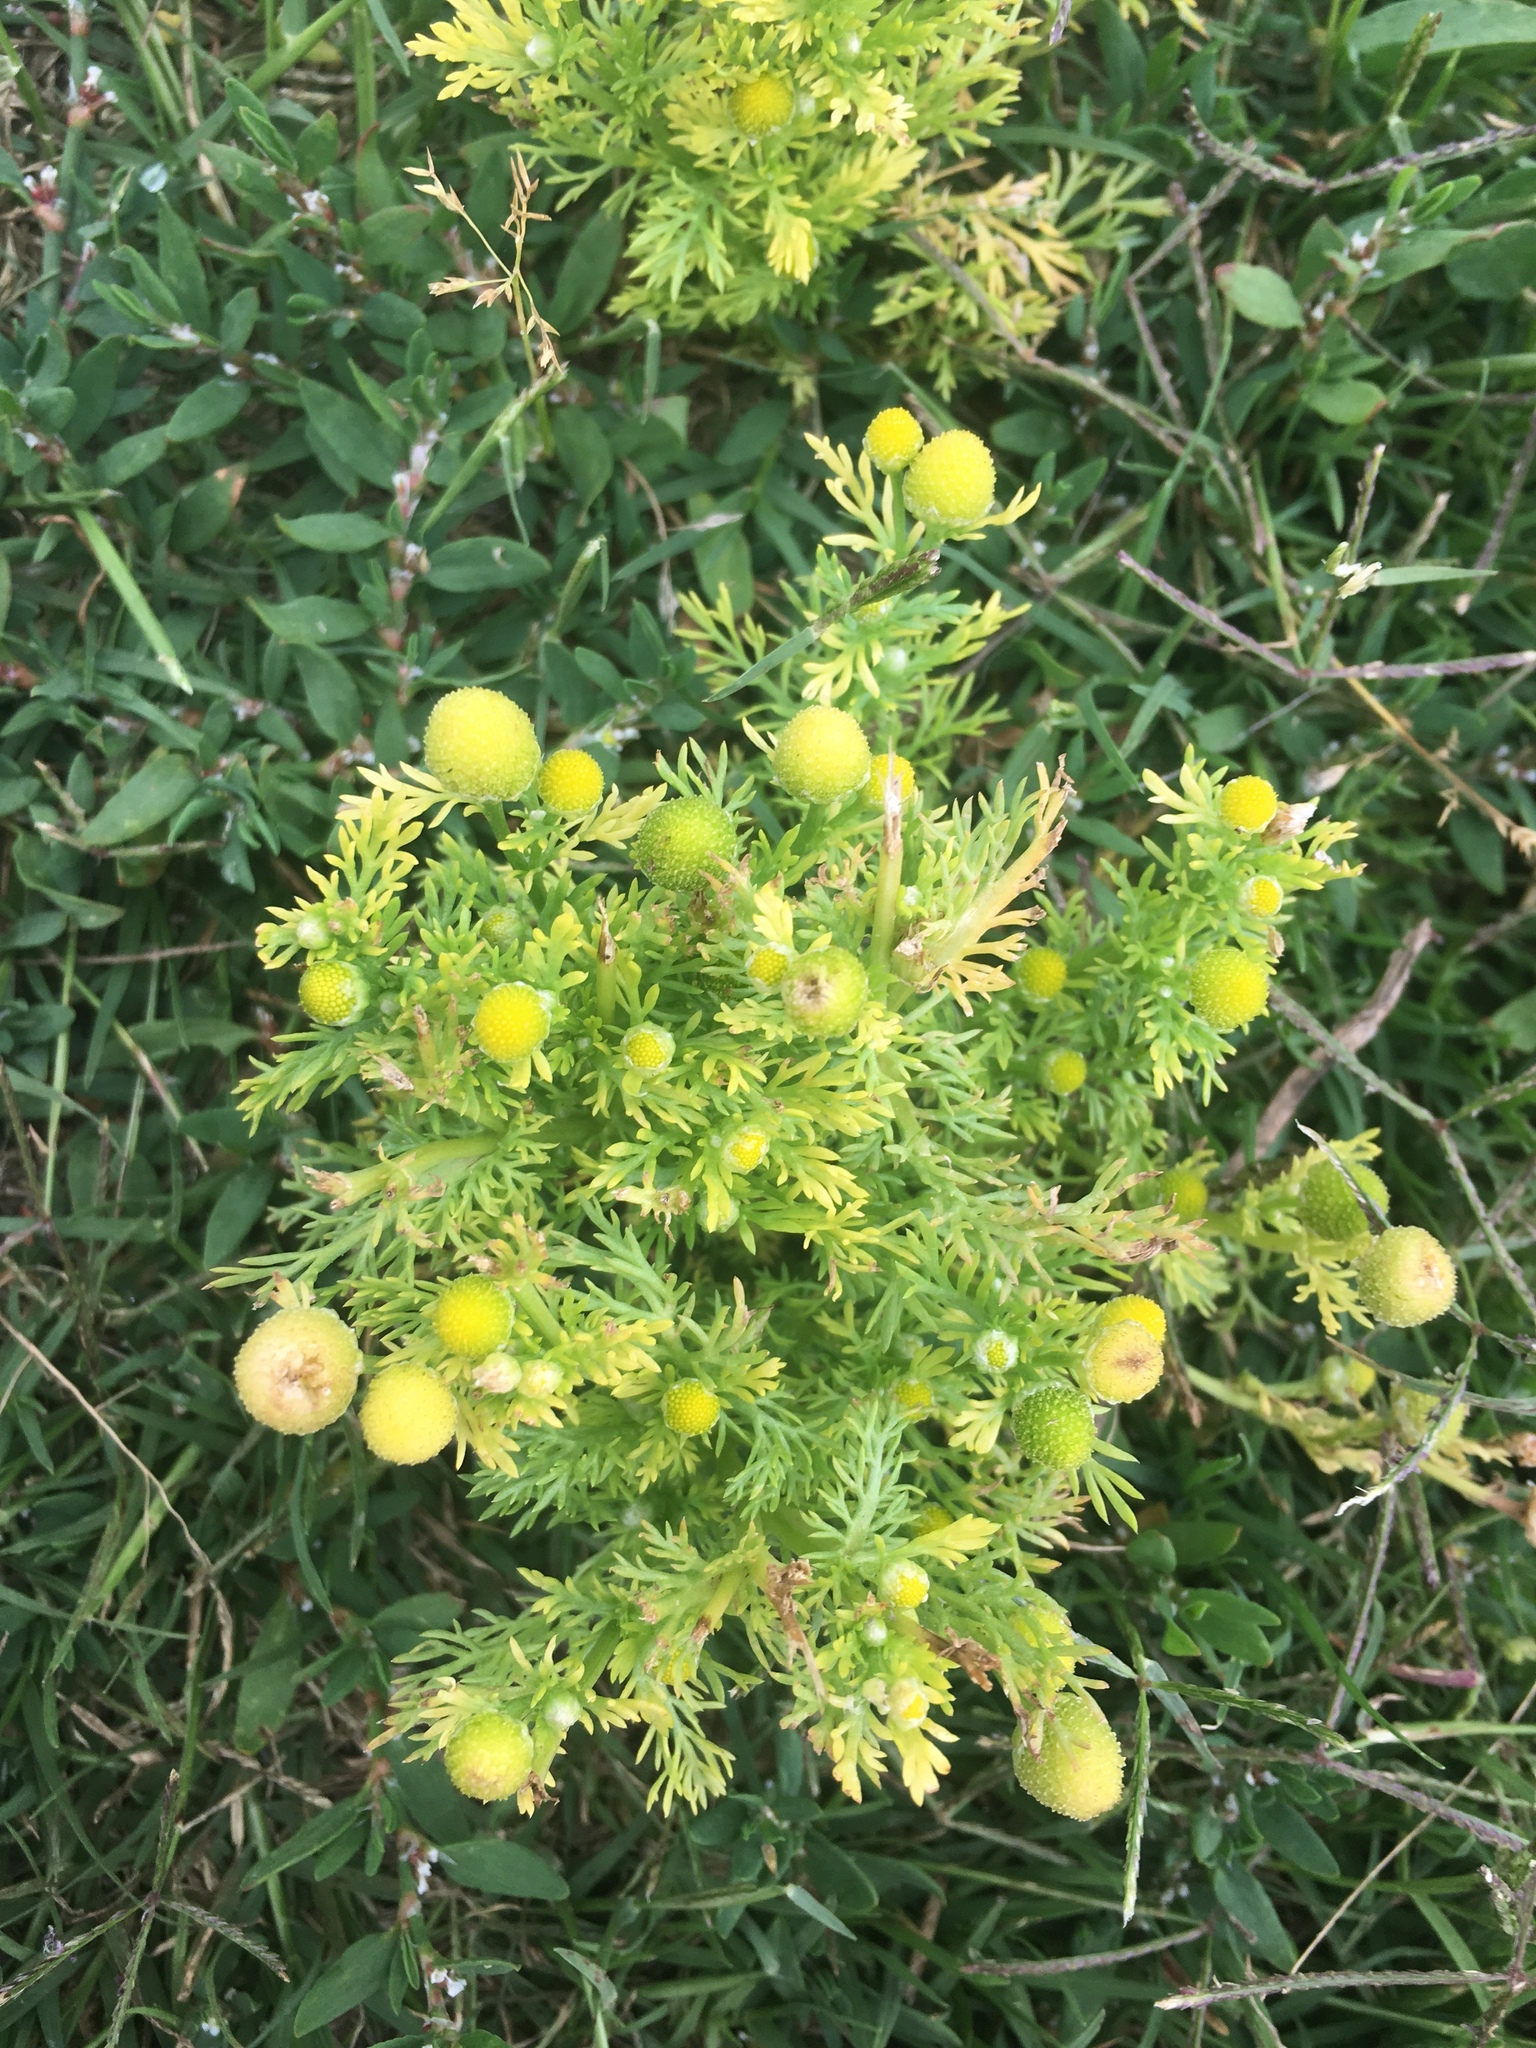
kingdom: Plantae
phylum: Tracheophyta
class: Magnoliopsida
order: Asterales
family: Asteraceae
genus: Matricaria
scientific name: Matricaria discoidea
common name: Disc mayweed
